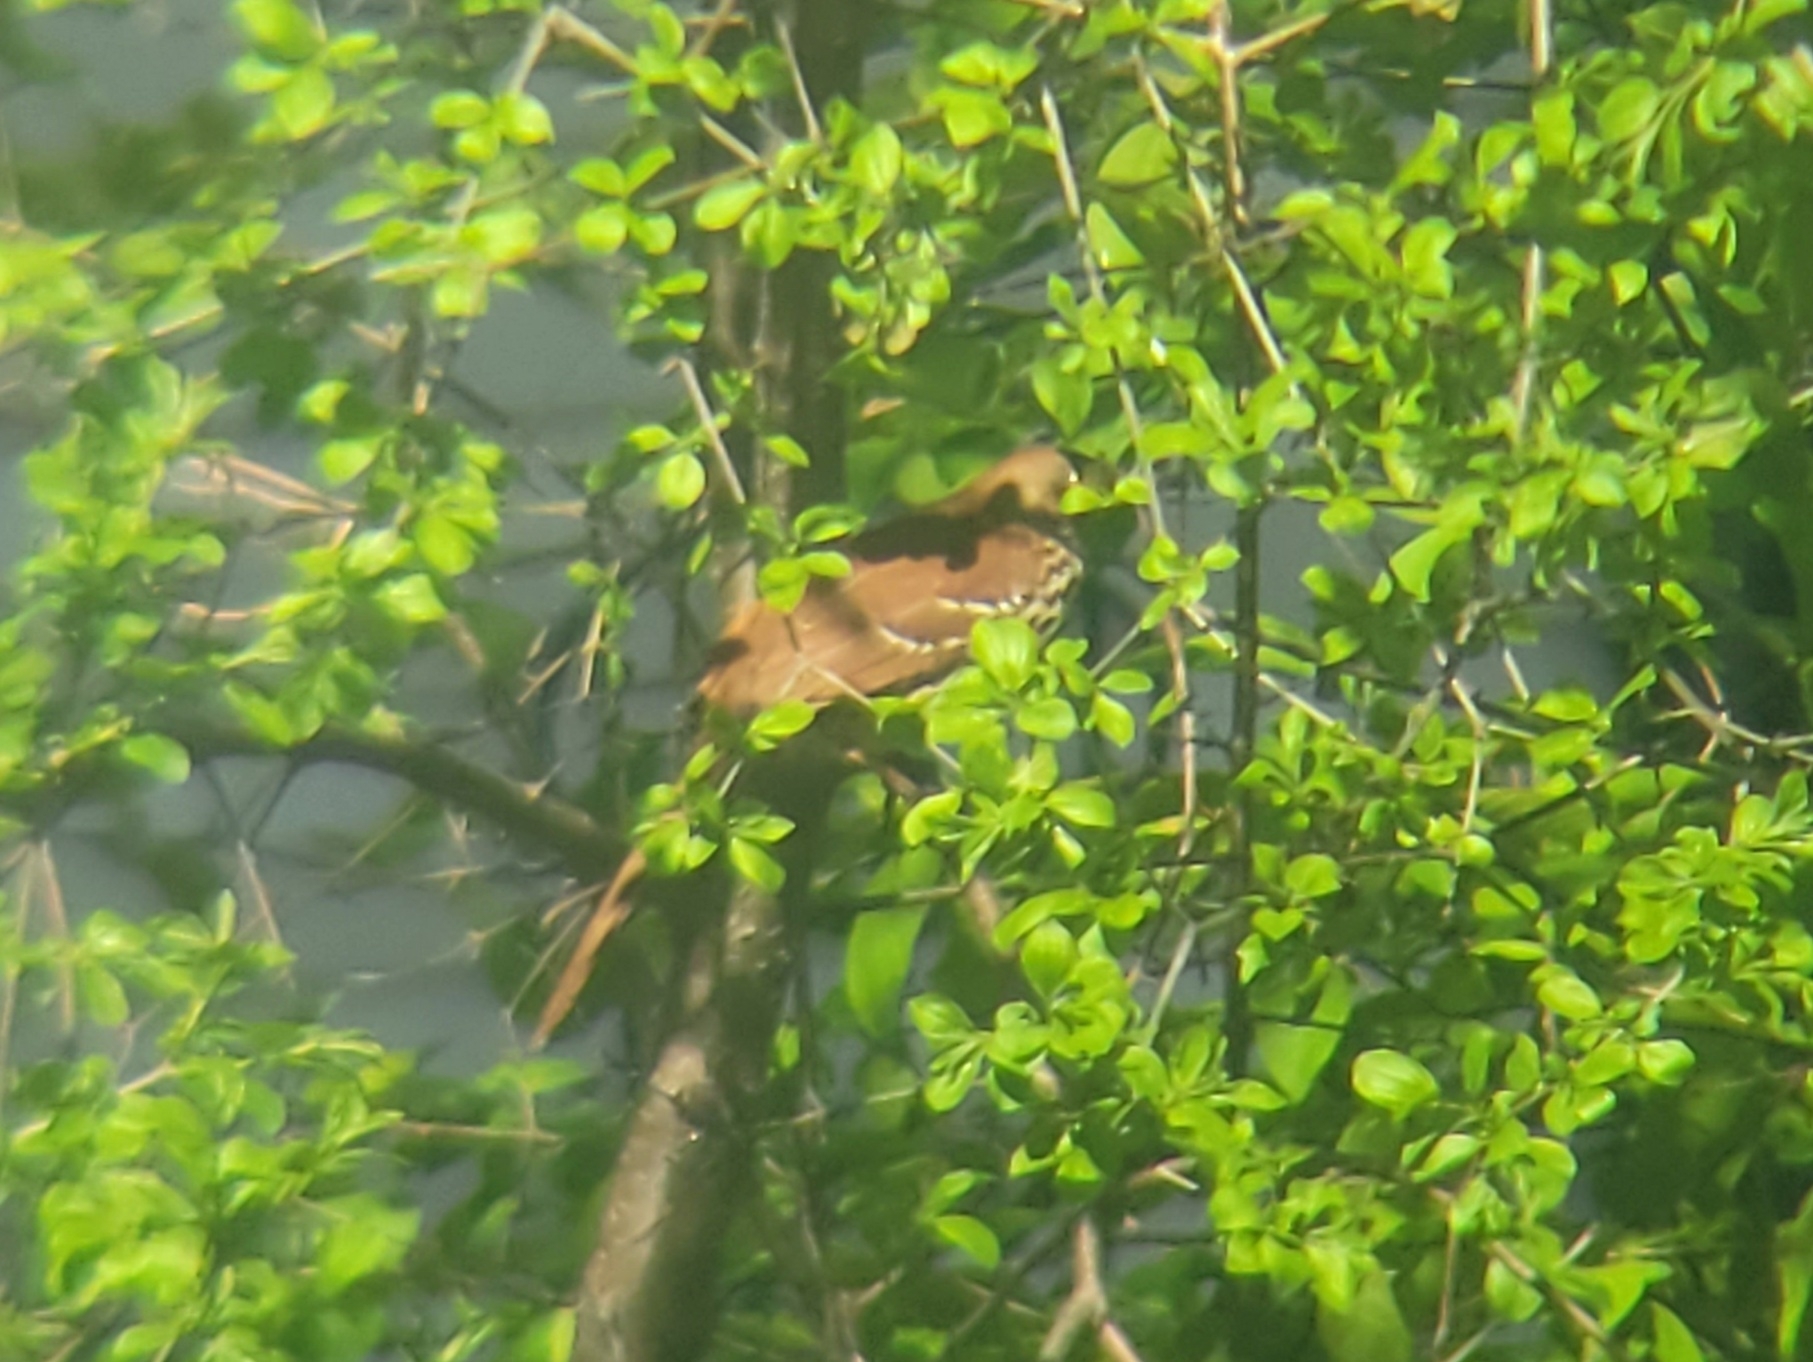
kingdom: Animalia
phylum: Chordata
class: Aves
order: Passeriformes
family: Mimidae
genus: Toxostoma
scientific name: Toxostoma rufum
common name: Brown thrasher
